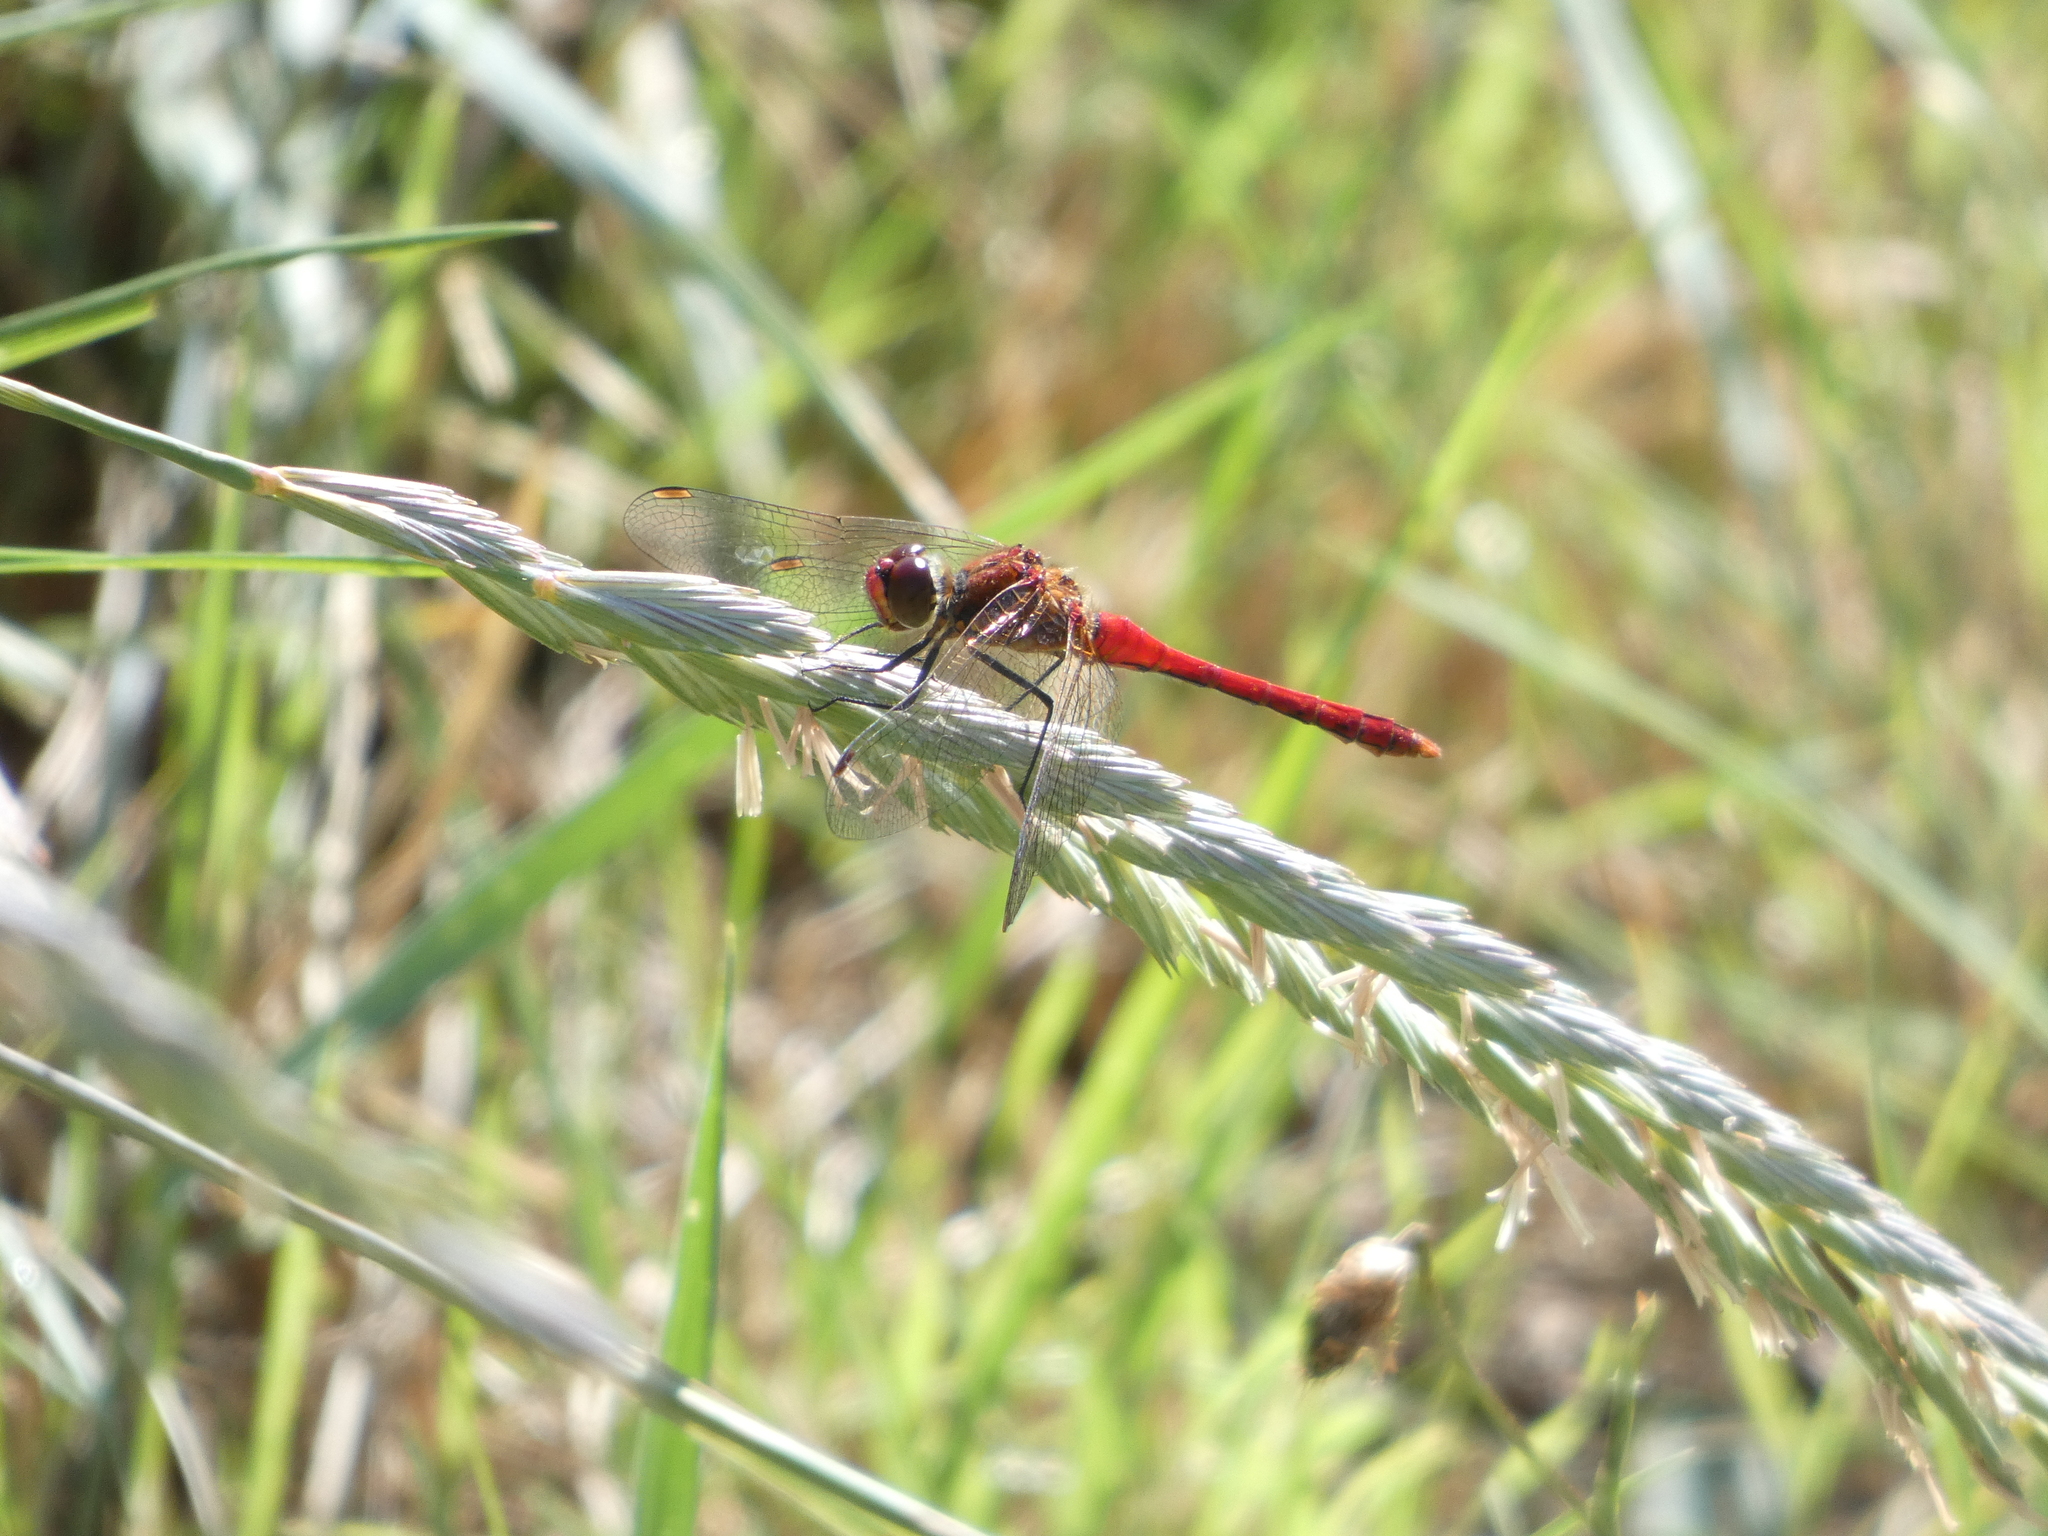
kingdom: Animalia
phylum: Arthropoda
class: Insecta
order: Odonata
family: Libellulidae
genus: Sympetrum
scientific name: Sympetrum sanguineum
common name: Ruddy darter
